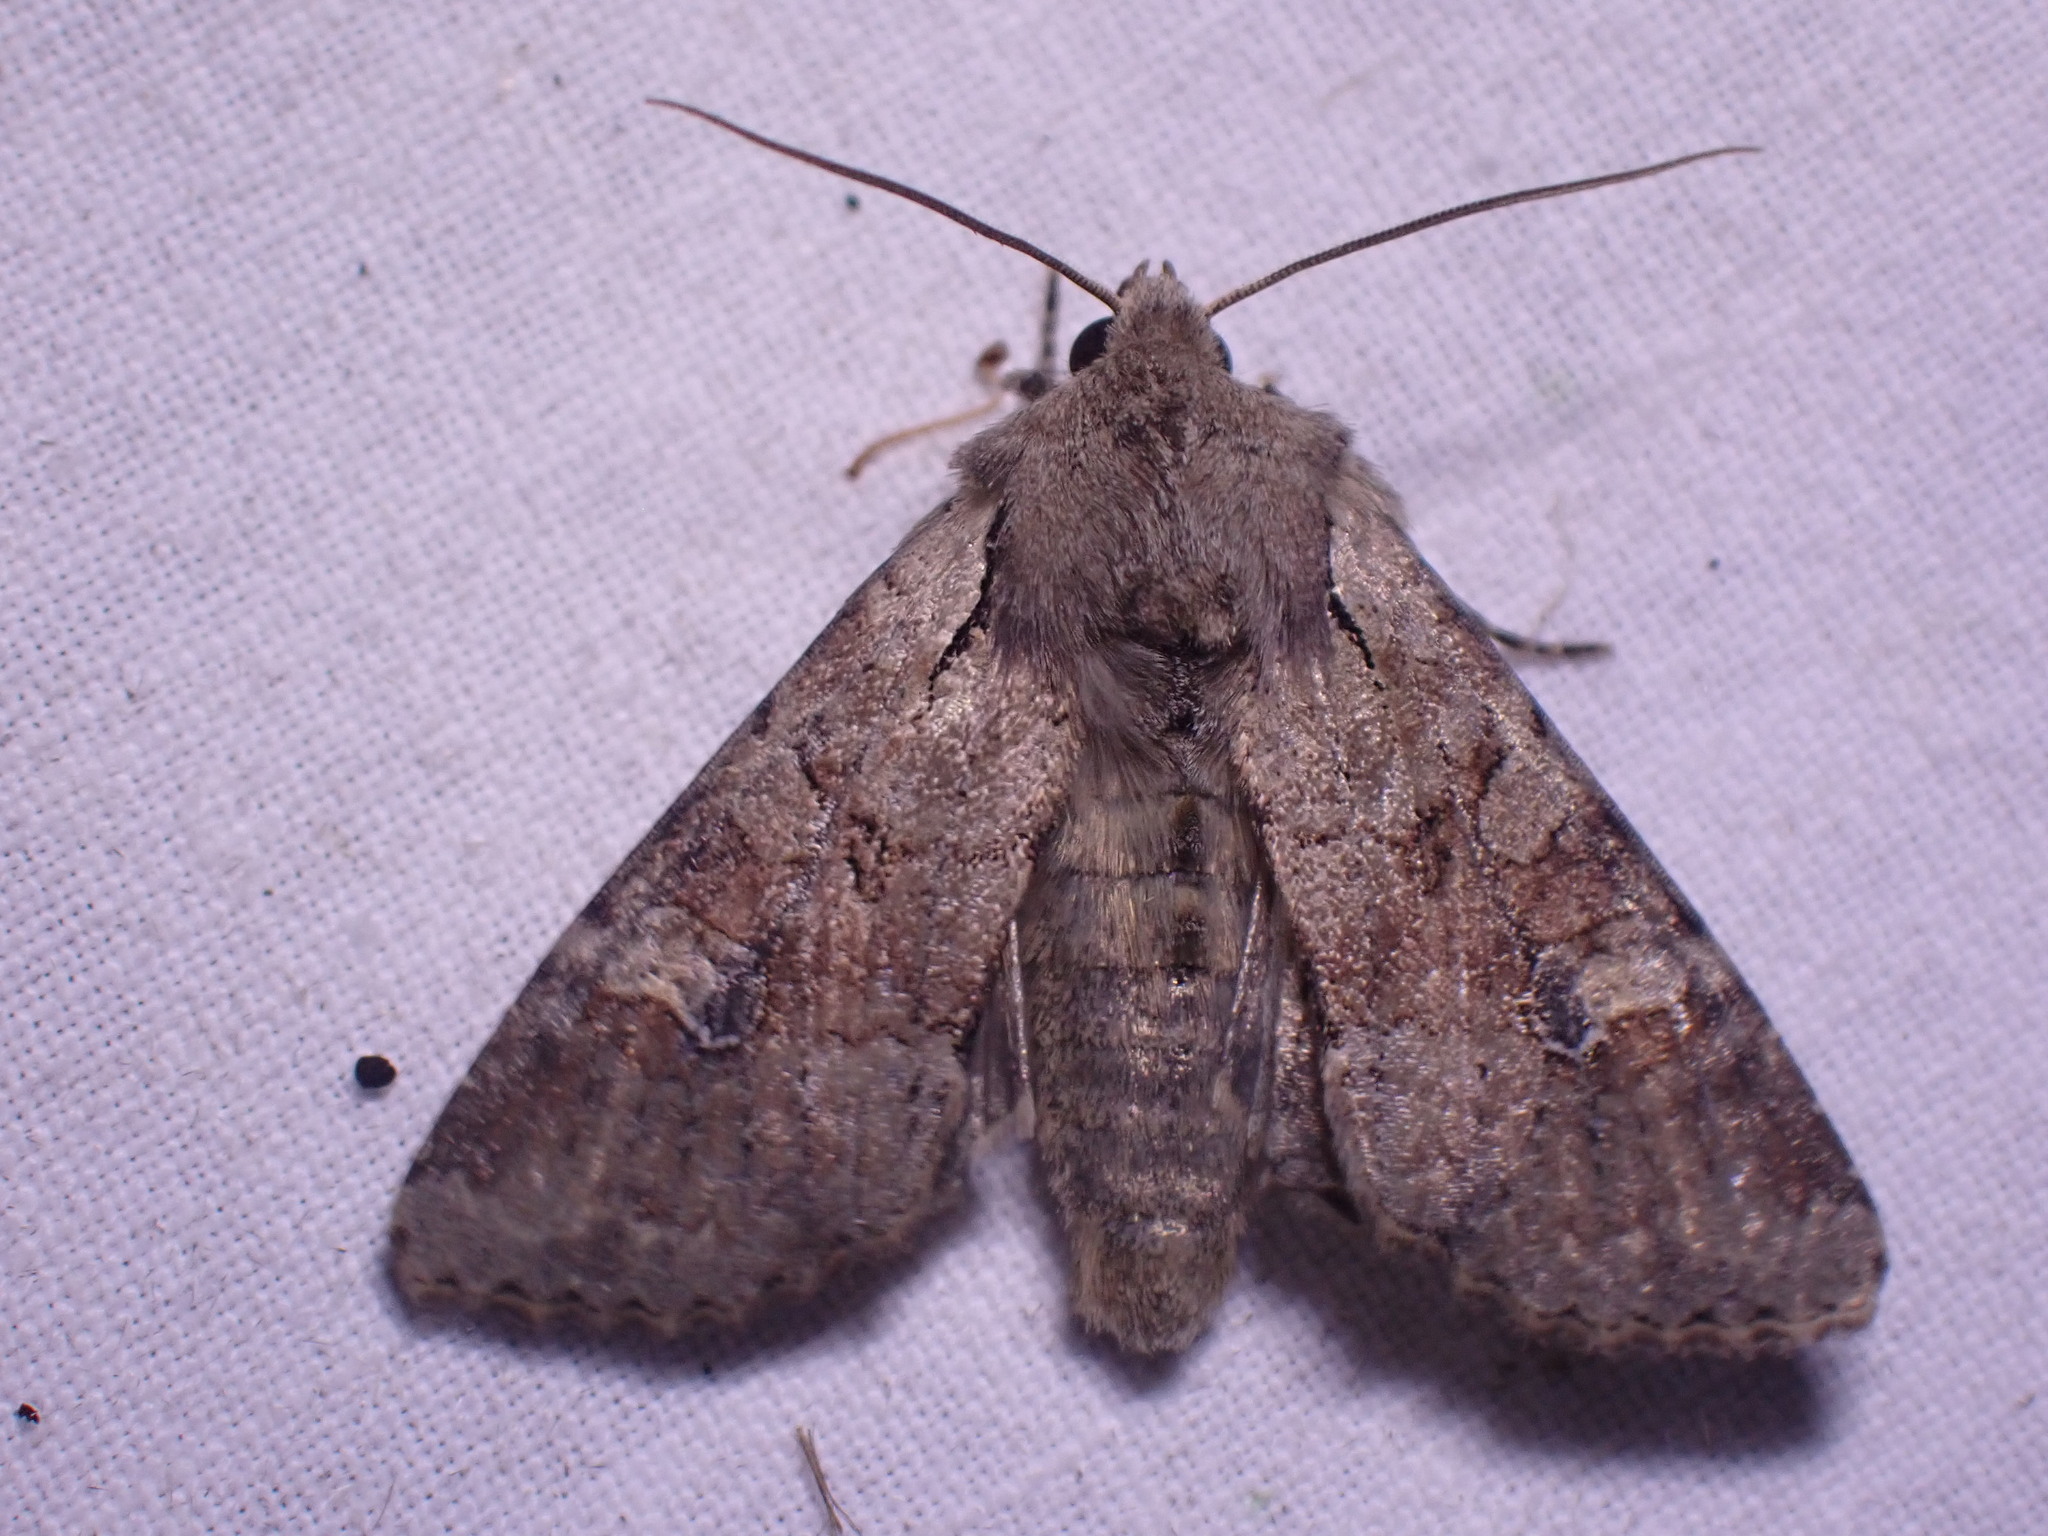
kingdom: Animalia
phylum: Arthropoda
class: Insecta
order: Lepidoptera
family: Noctuidae
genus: Apamea
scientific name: Apamea sordens
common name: Rustic shoulder-knot
